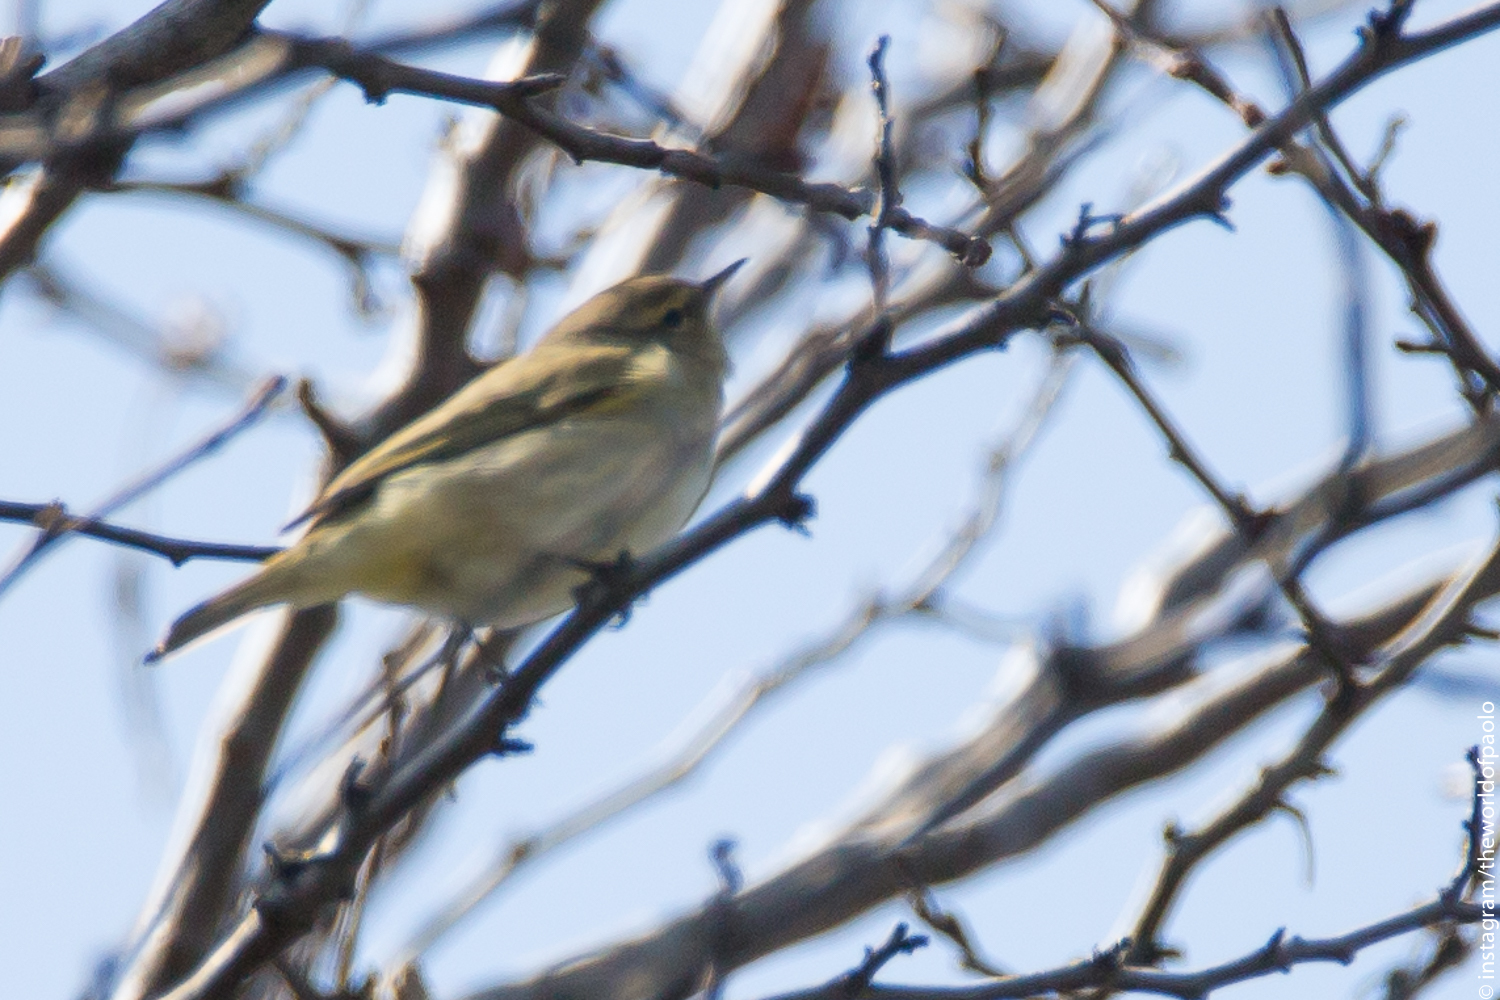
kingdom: Animalia
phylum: Chordata
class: Aves
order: Passeriformes
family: Phylloscopidae
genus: Phylloscopus
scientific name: Phylloscopus collybita
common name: Common chiffchaff
